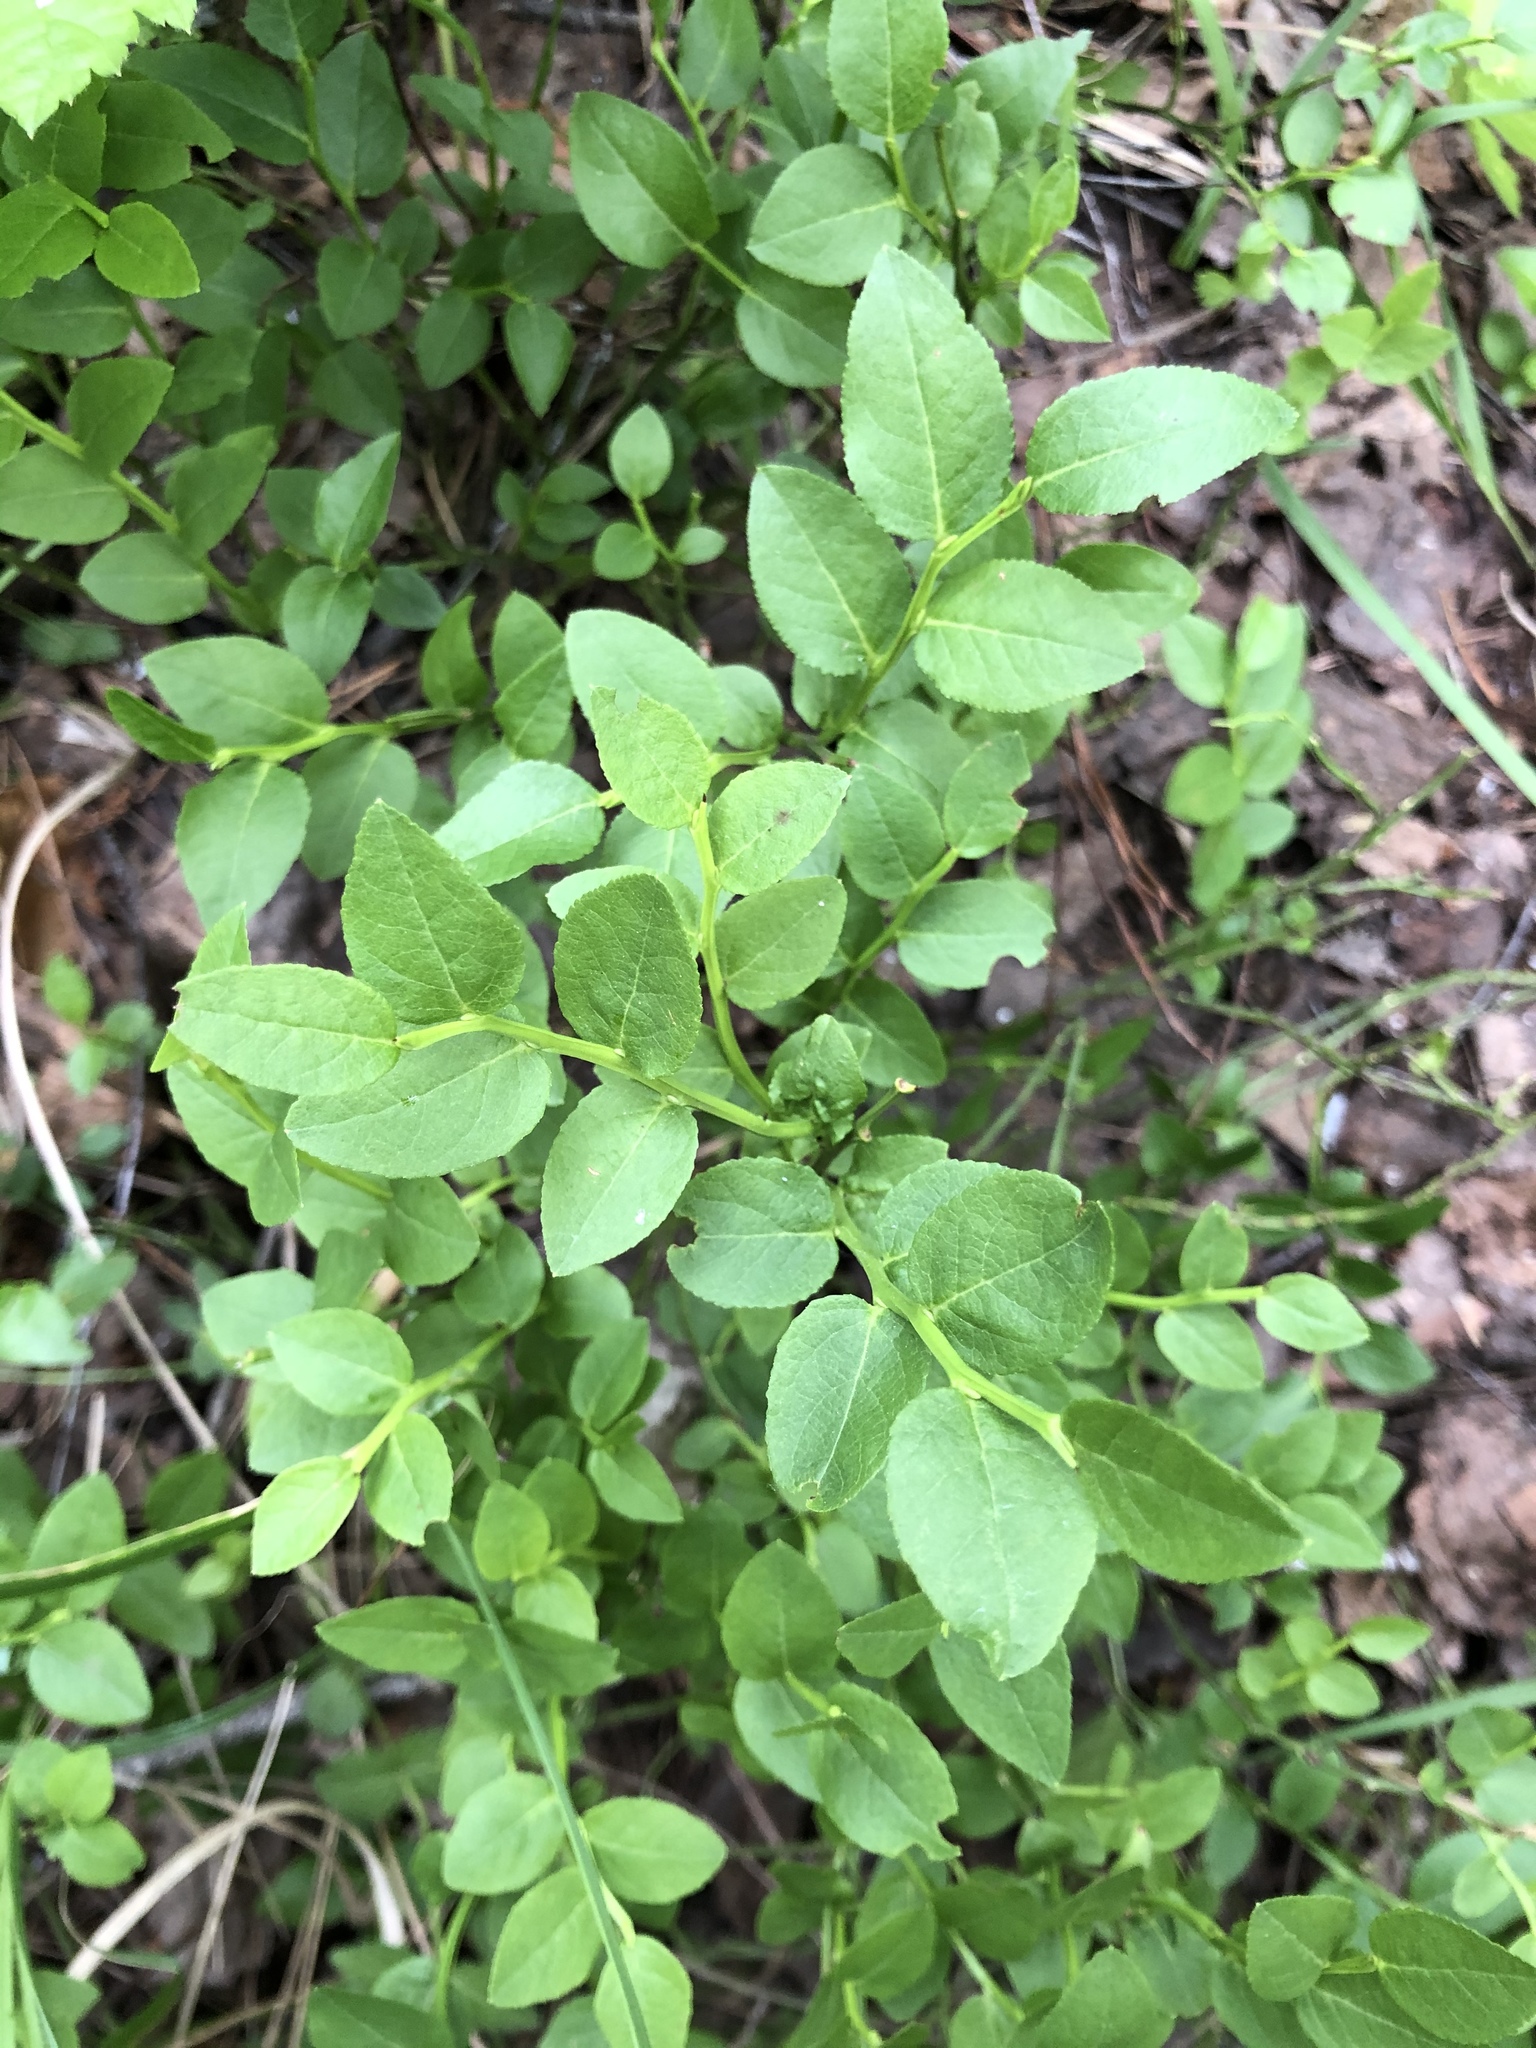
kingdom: Plantae
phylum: Tracheophyta
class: Magnoliopsida
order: Ericales
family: Ericaceae
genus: Vaccinium
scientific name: Vaccinium myrtillus
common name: Bilberry
